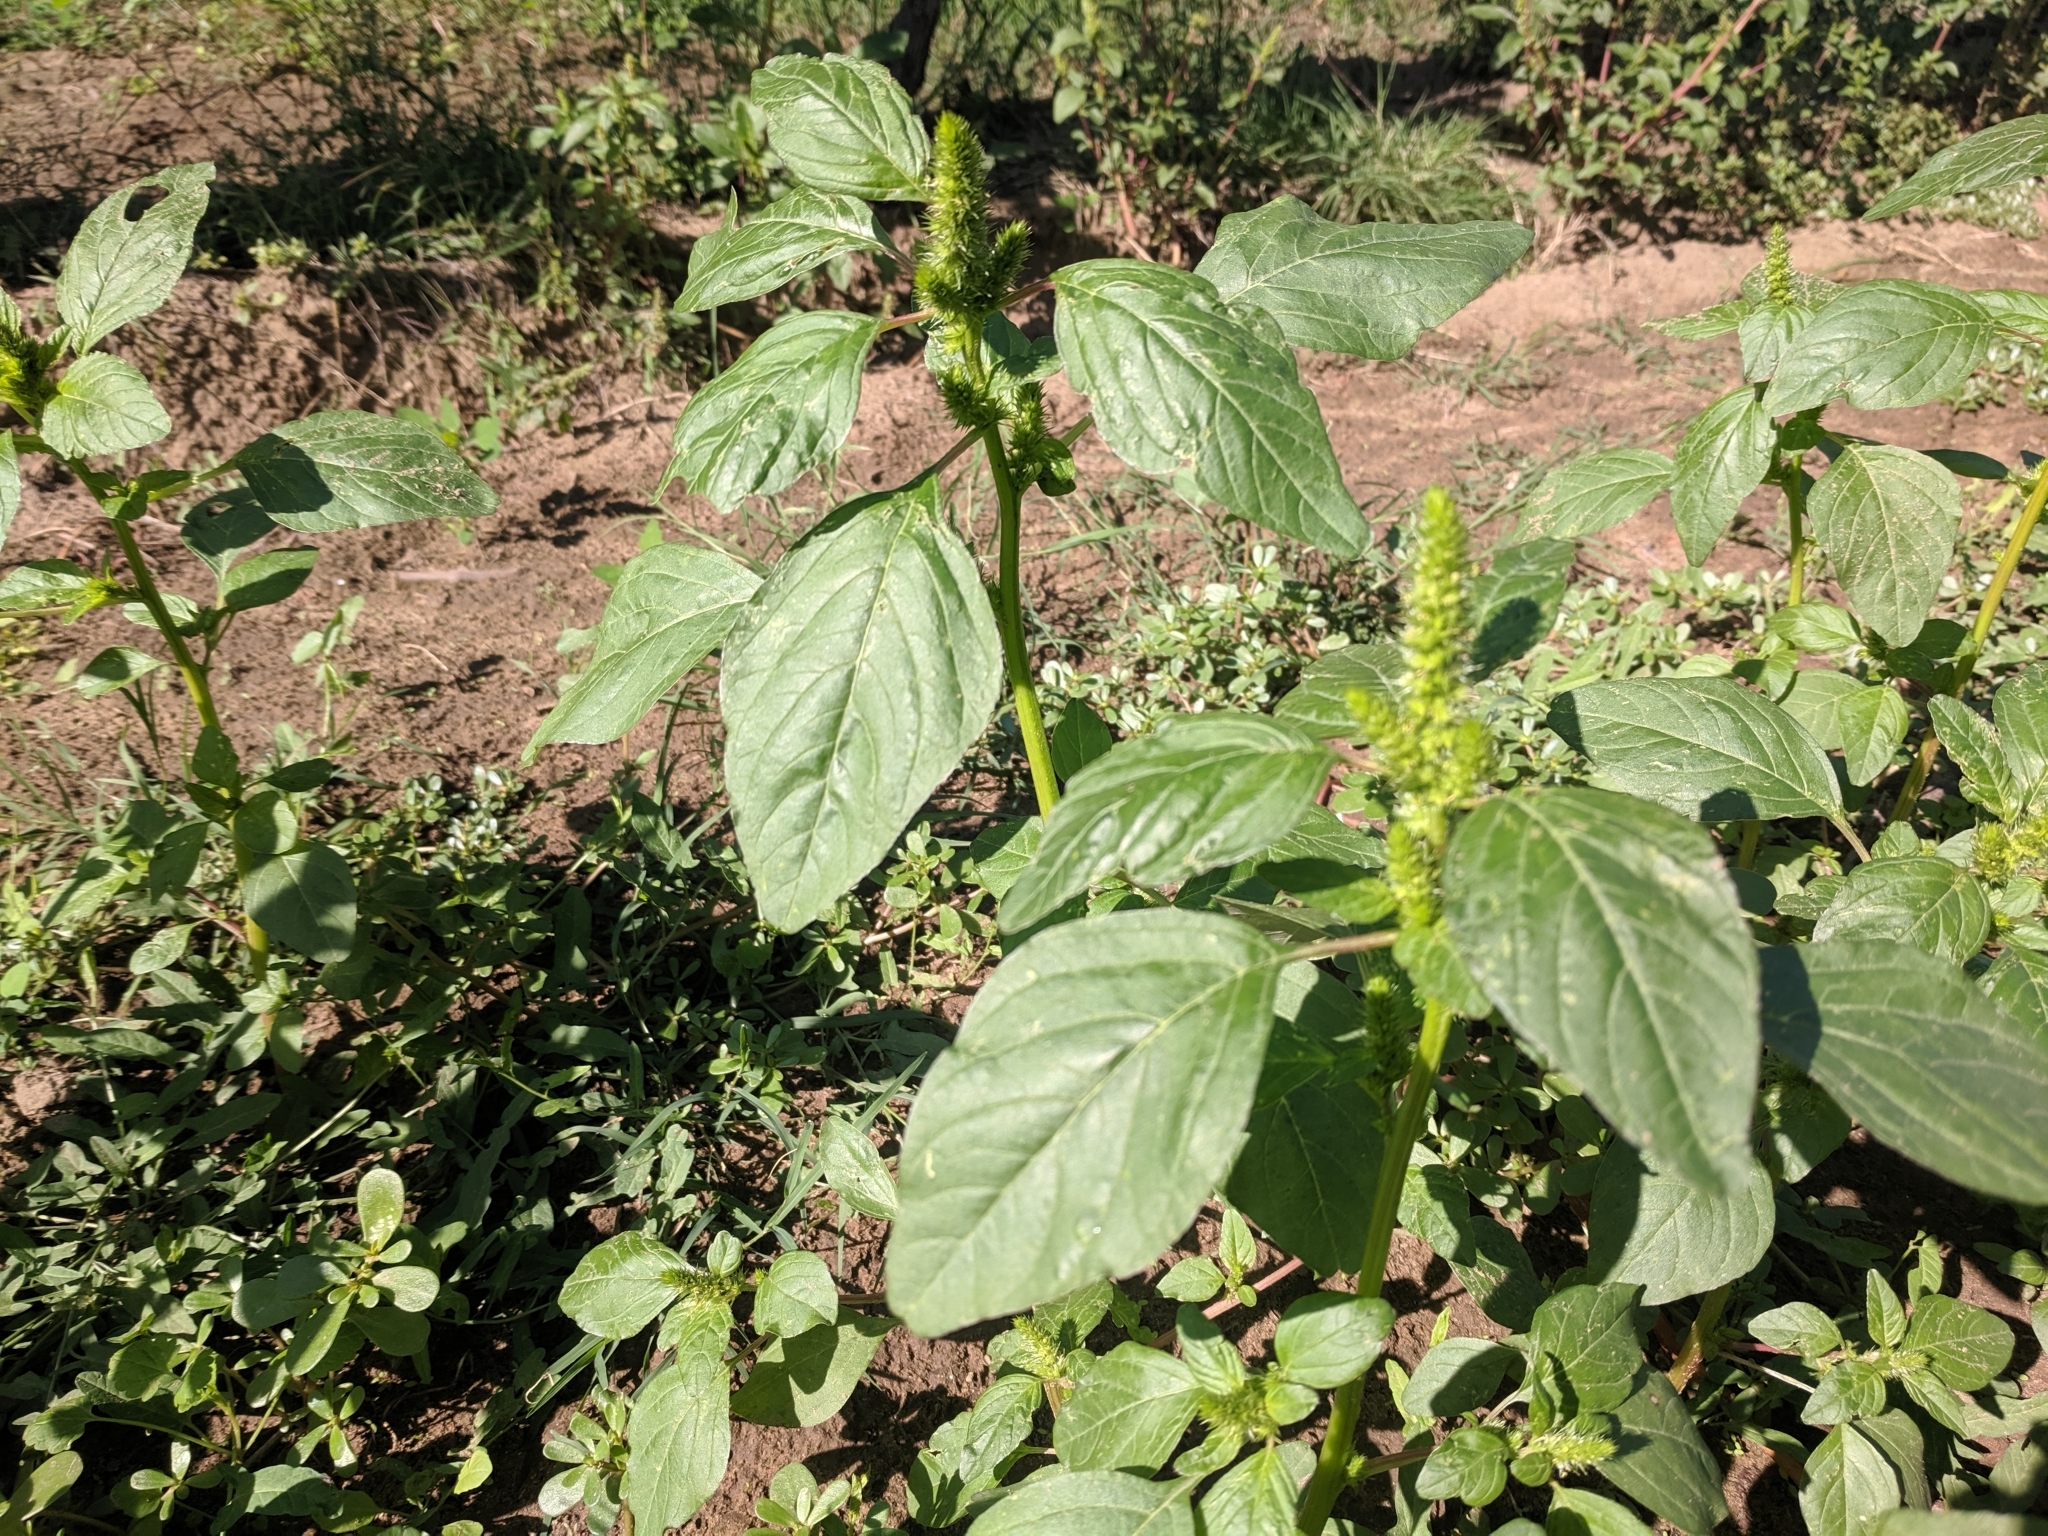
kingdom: Plantae
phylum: Tracheophyta
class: Magnoliopsida
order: Caryophyllales
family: Amaranthaceae
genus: Amaranthus
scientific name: Amaranthus retroflexus
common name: Redroot amaranth
